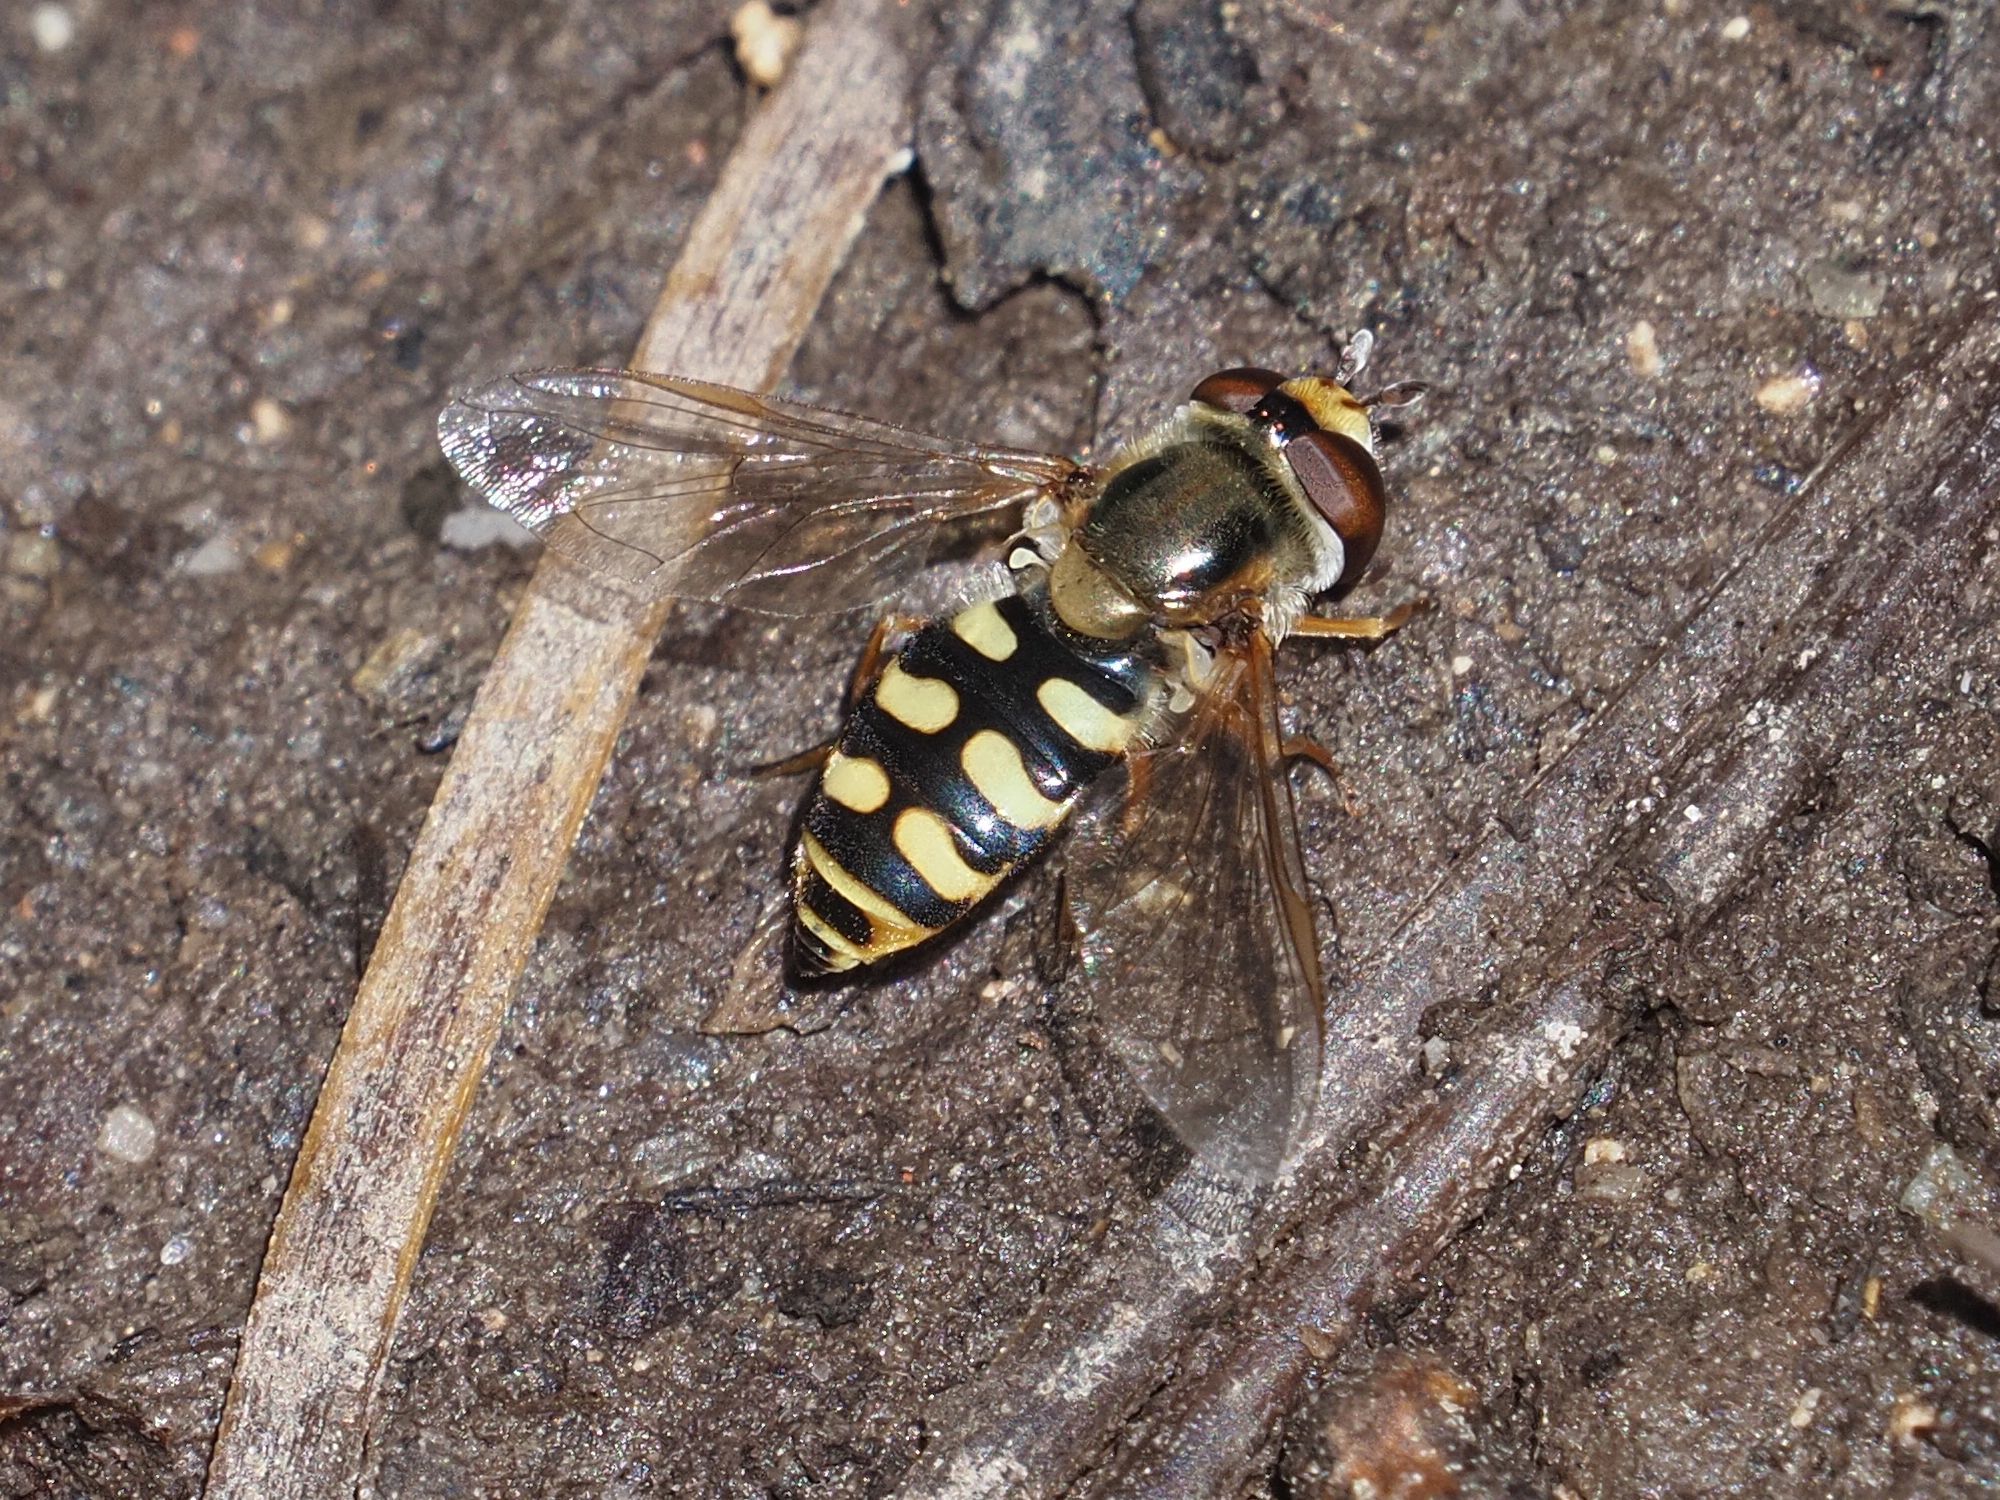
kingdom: Animalia
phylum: Arthropoda
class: Insecta
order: Diptera
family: Syrphidae
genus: Eupeodes
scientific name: Eupeodes corollae
